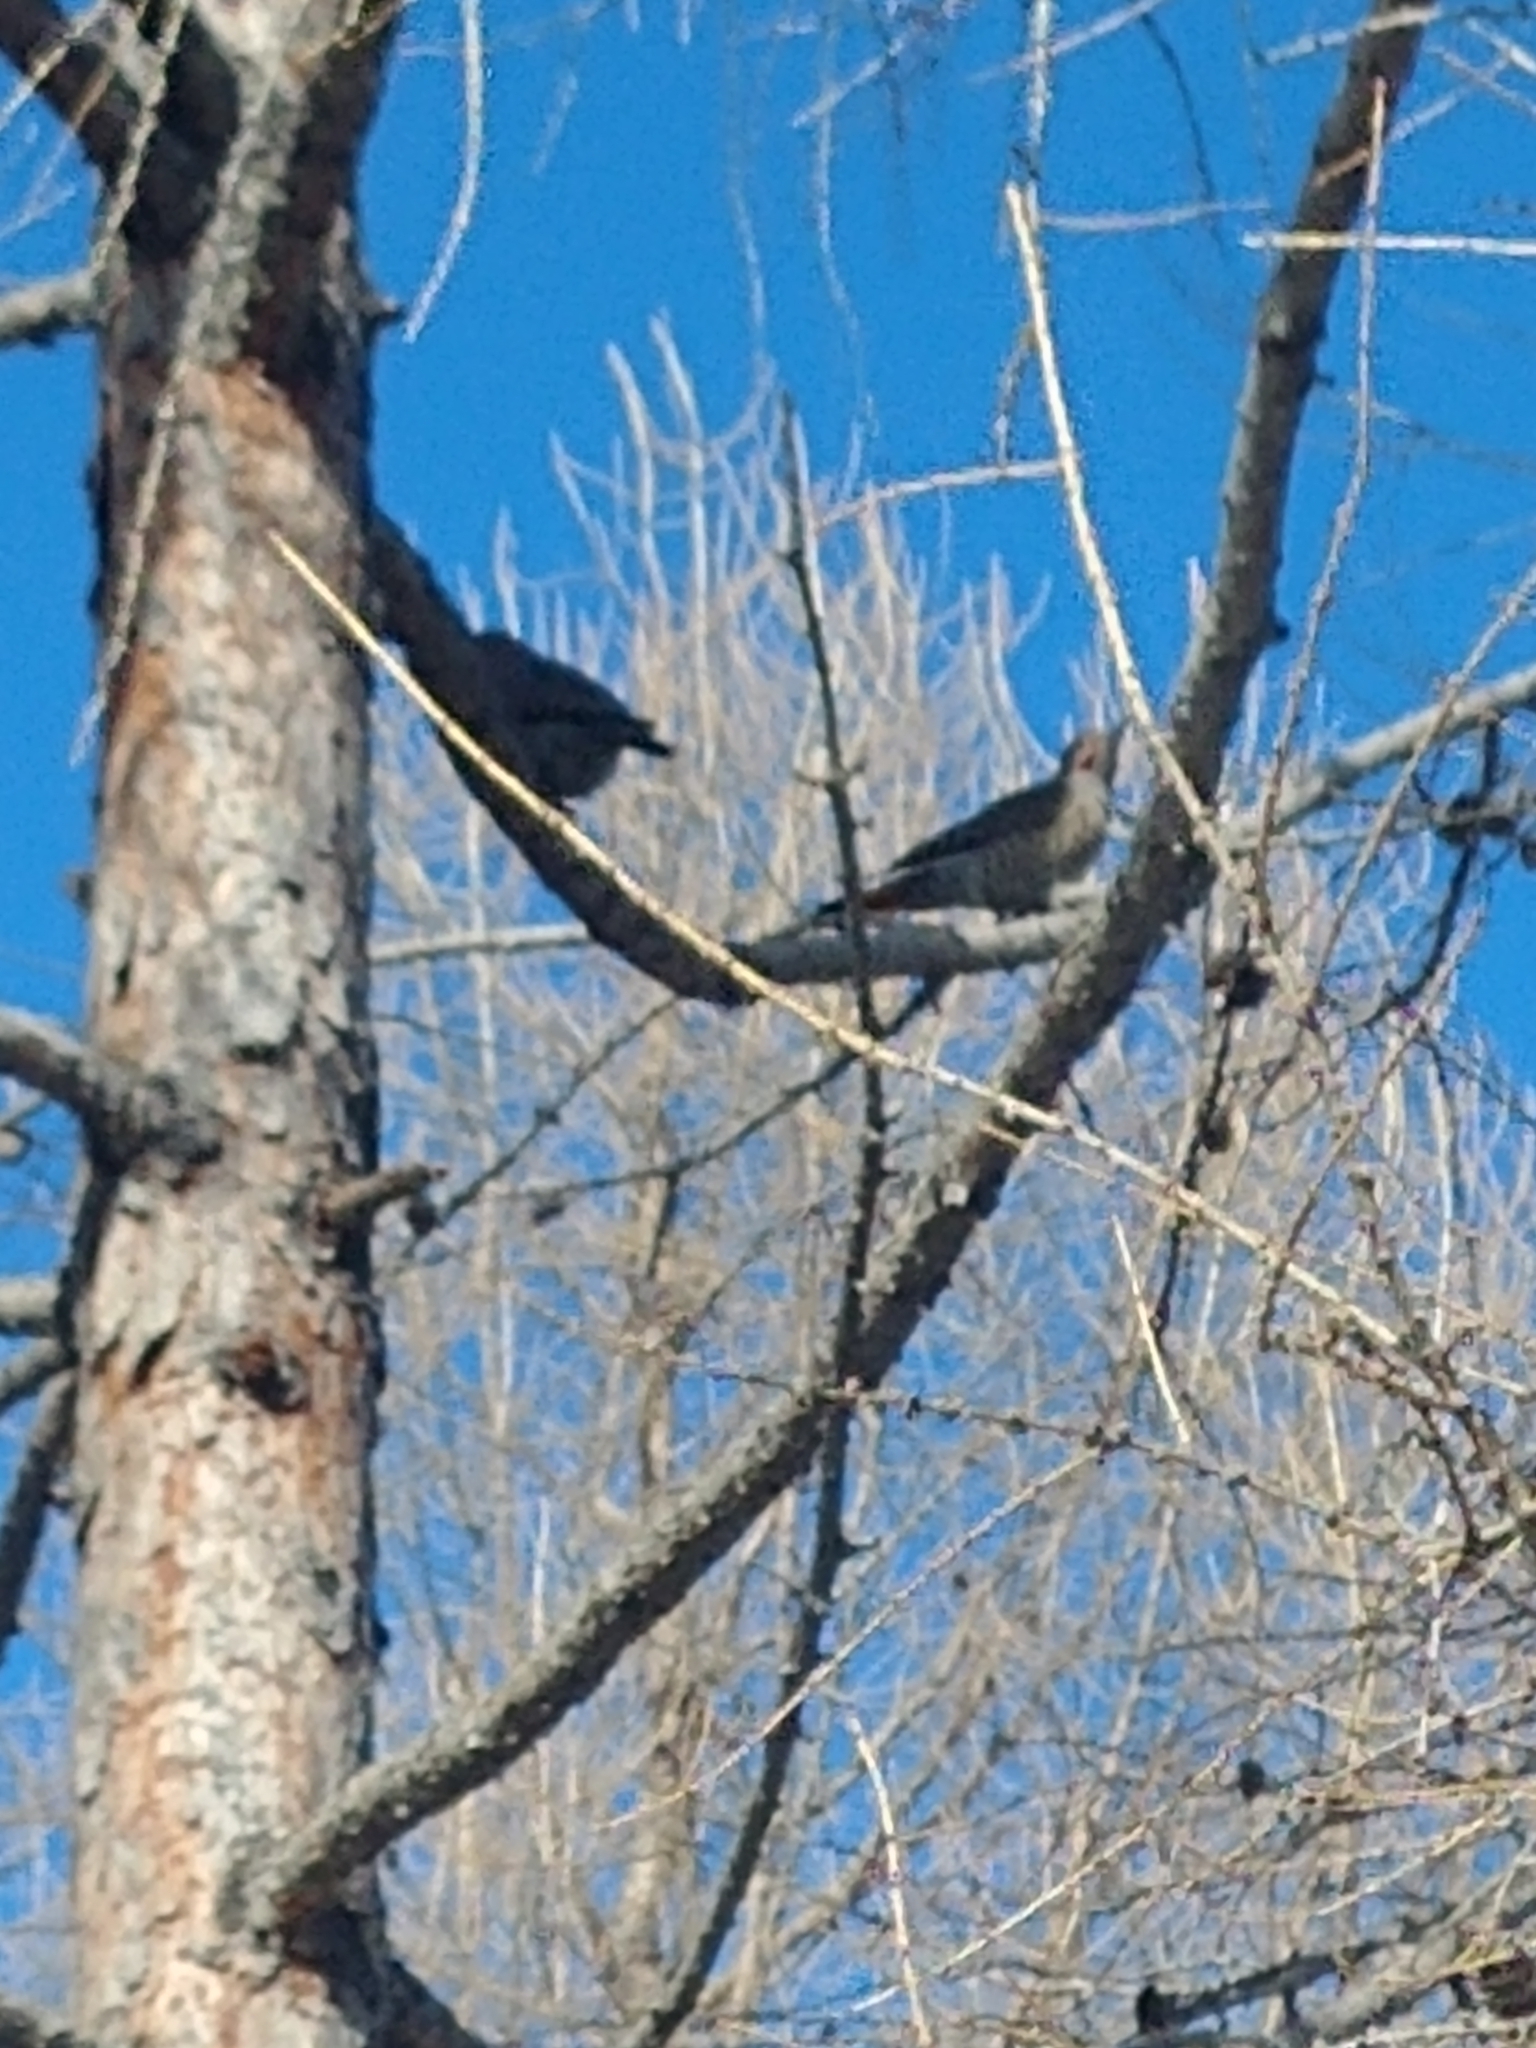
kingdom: Animalia
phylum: Chordata
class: Aves
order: Piciformes
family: Picidae
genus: Colaptes
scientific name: Colaptes auratus
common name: Northern flicker
